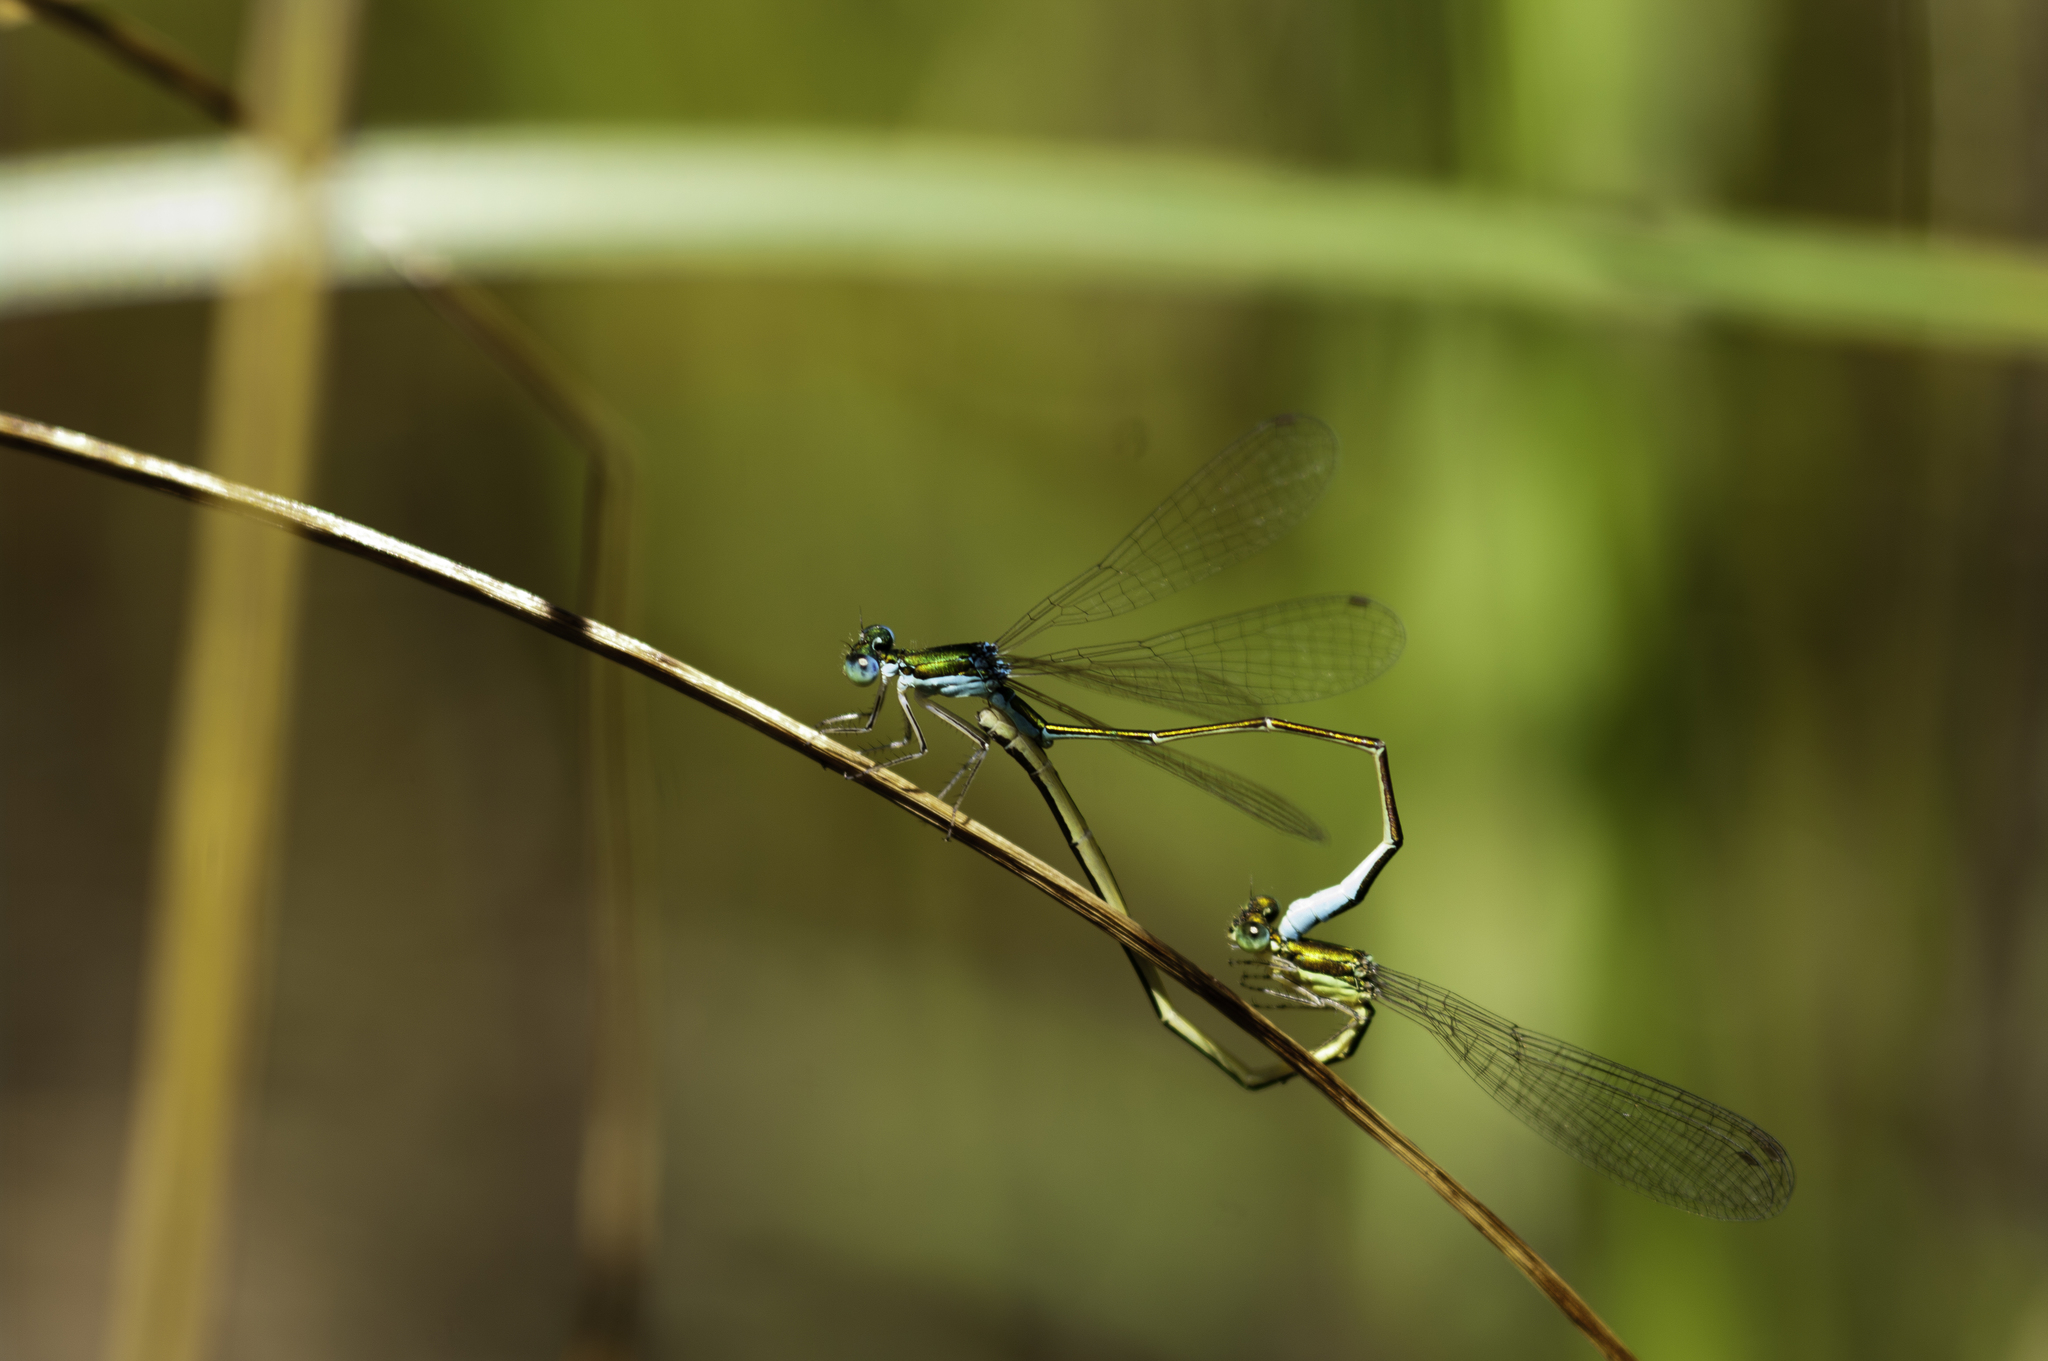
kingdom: Animalia
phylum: Arthropoda
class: Insecta
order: Odonata
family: Coenagrionidae
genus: Nehalennia
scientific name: Nehalennia irene
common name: Sedge sprite
